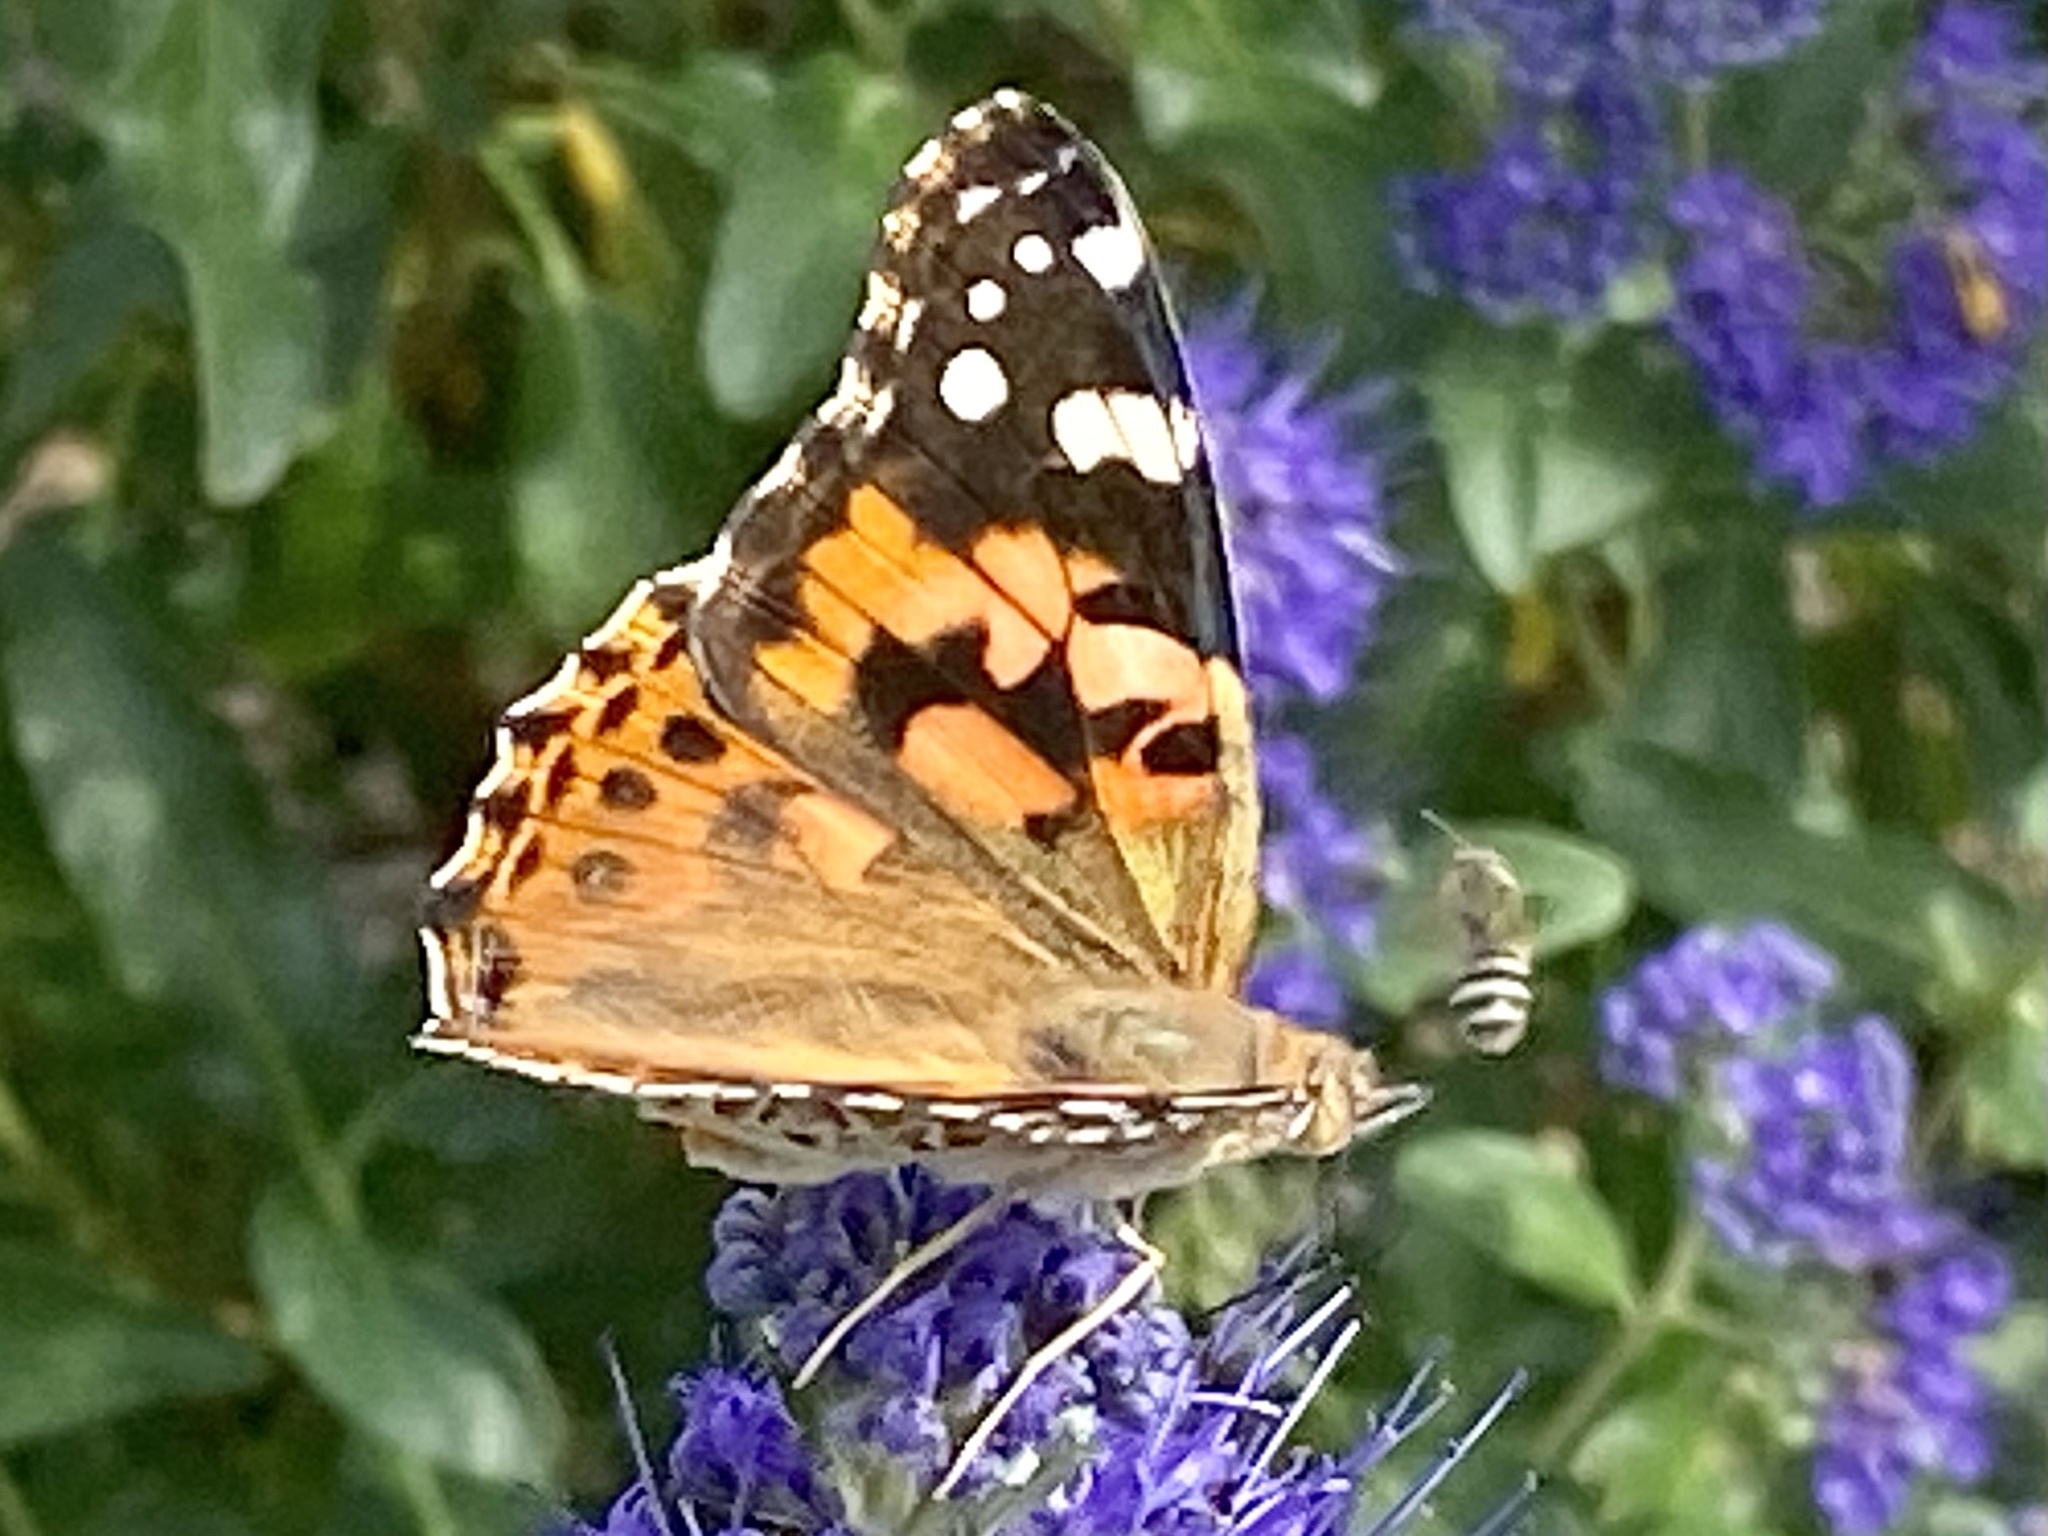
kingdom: Animalia
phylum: Arthropoda
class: Insecta
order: Lepidoptera
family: Nymphalidae
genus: Vanessa
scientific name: Vanessa cardui
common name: Painted lady
